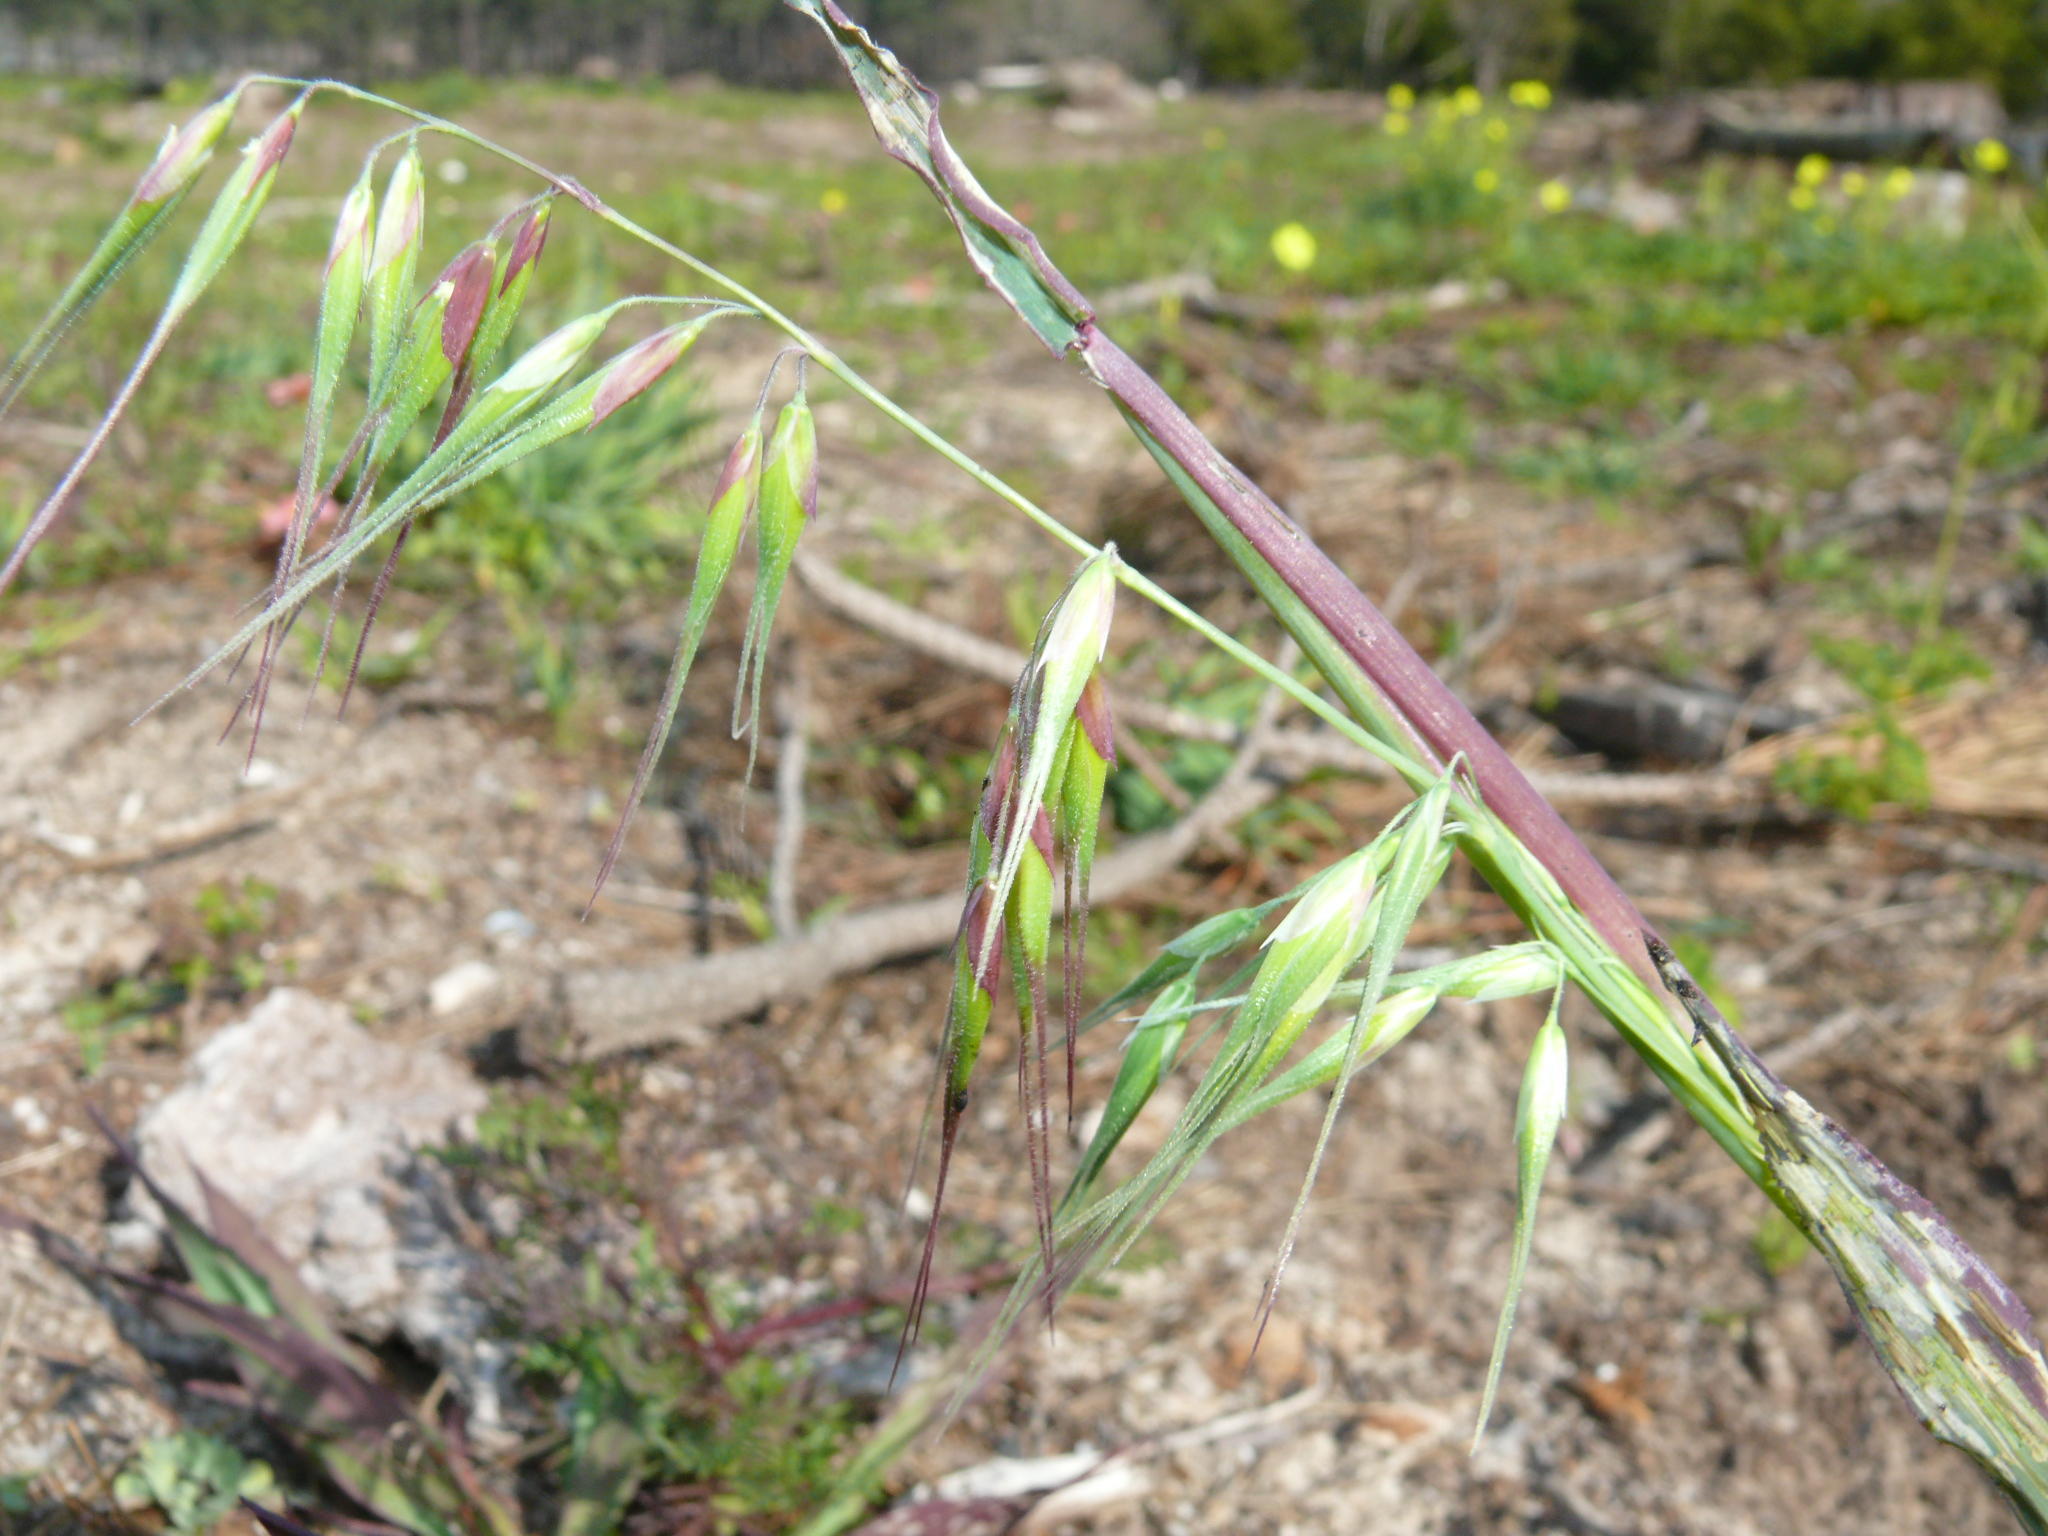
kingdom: Plantae
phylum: Tracheophyta
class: Liliopsida
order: Poales
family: Poaceae
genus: Ehrharta
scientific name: Ehrharta longiflora
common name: Longflowered veldtgrass
